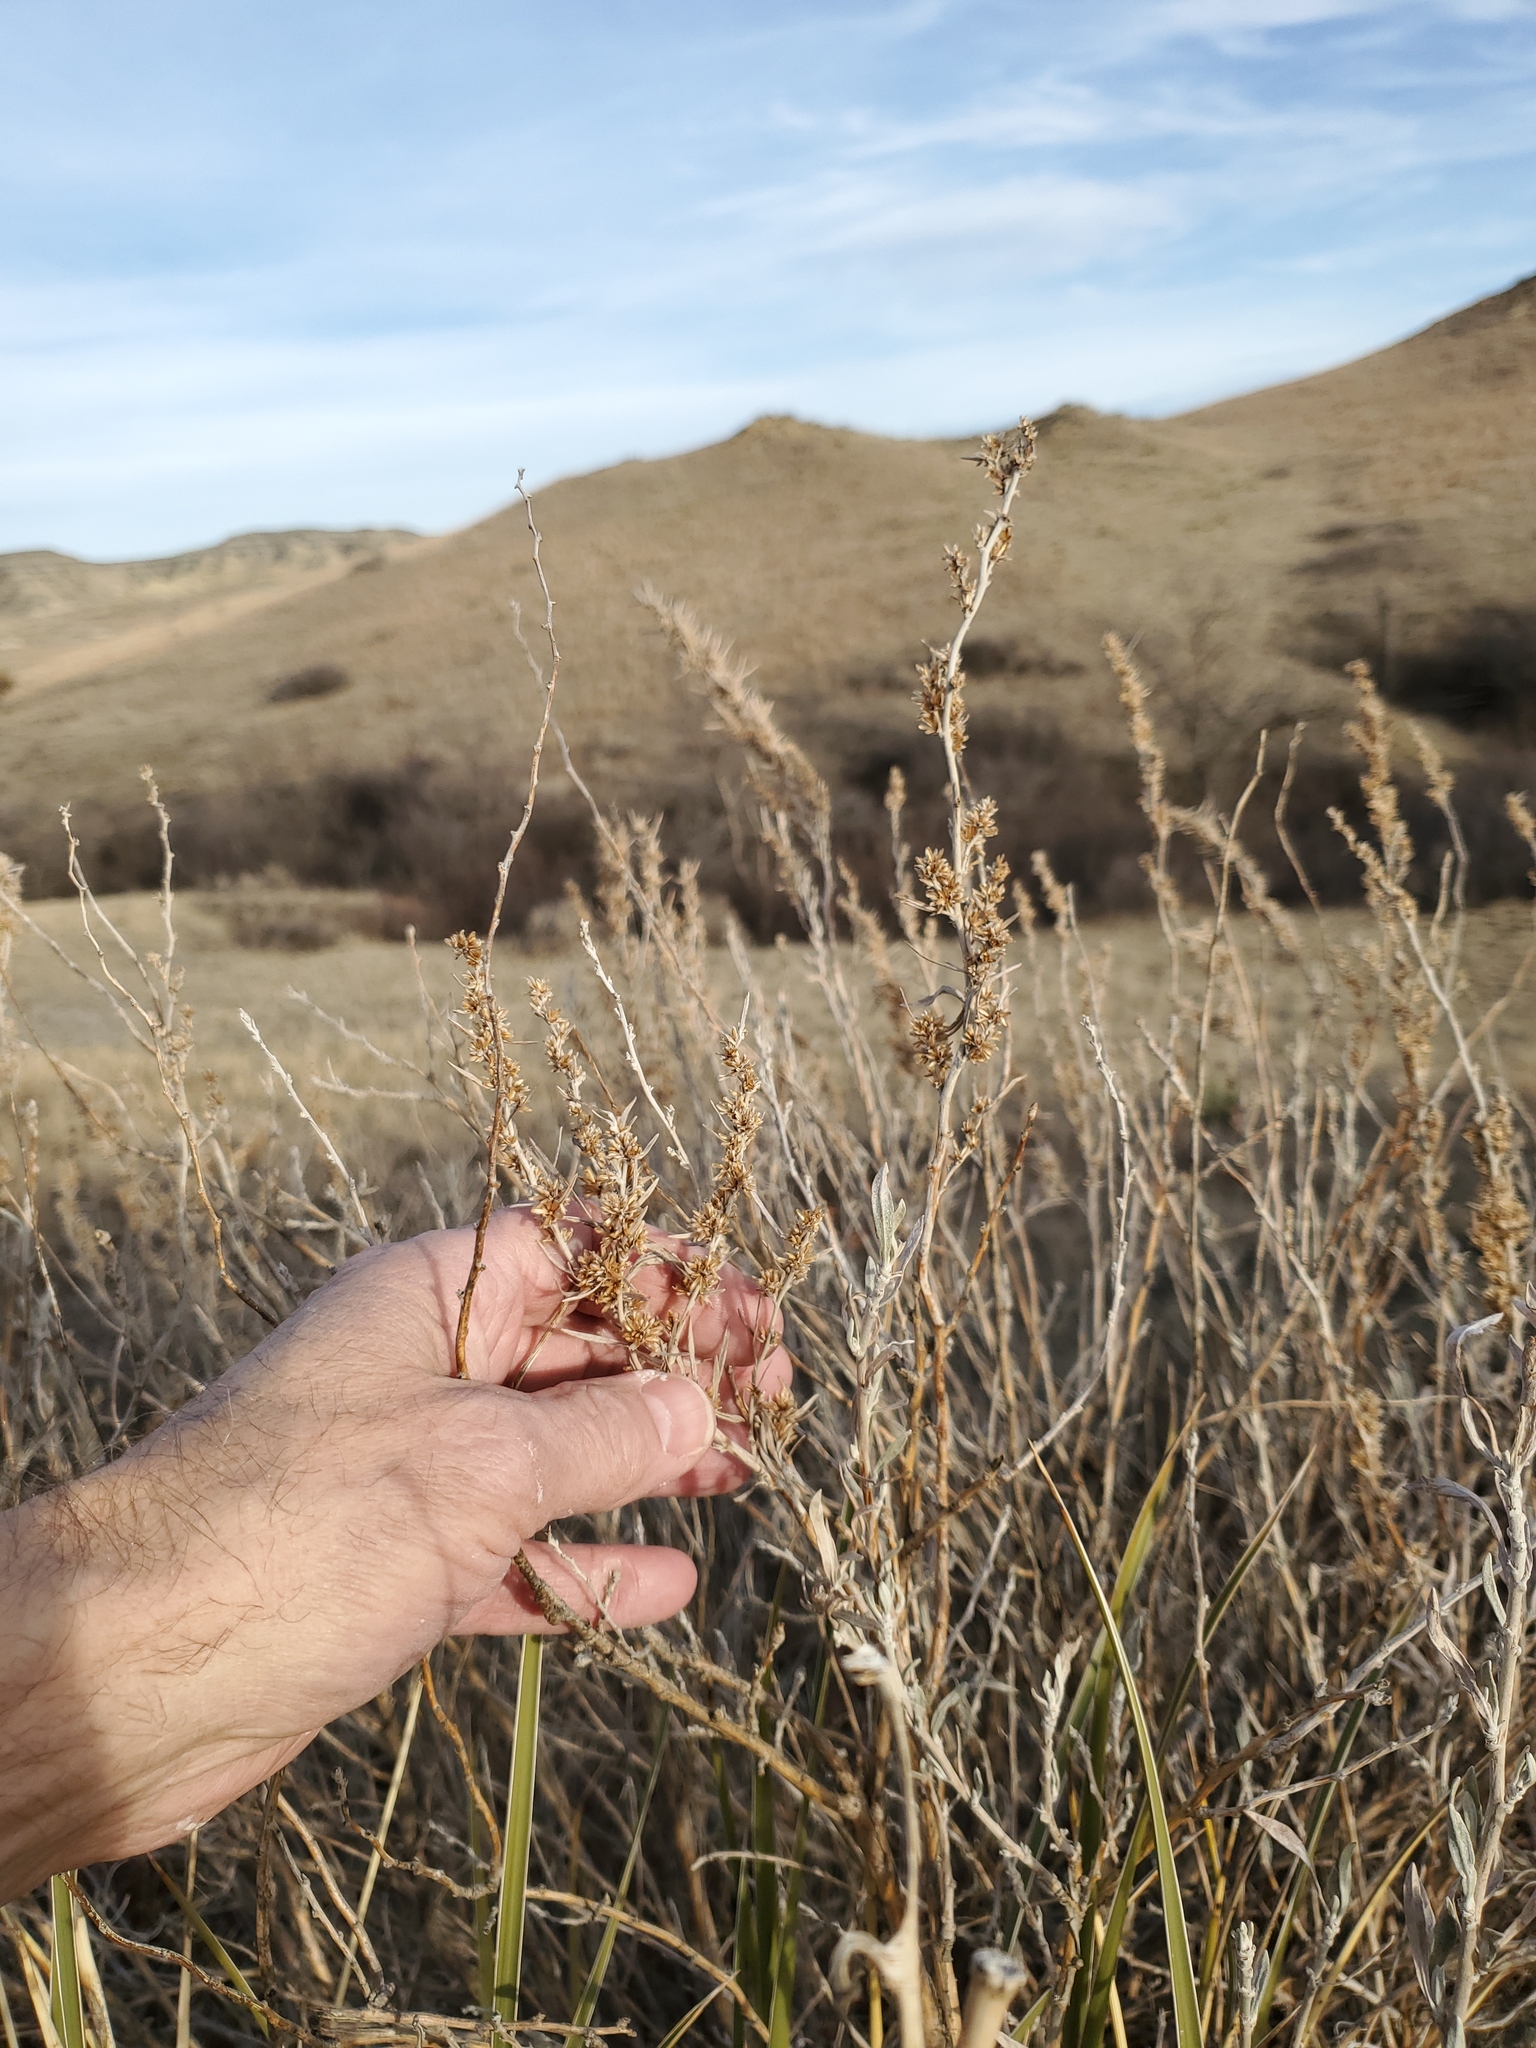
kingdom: Plantae
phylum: Tracheophyta
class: Magnoliopsida
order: Asterales
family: Asteraceae
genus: Artemisia
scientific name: Artemisia cana
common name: Silver sagebrush
